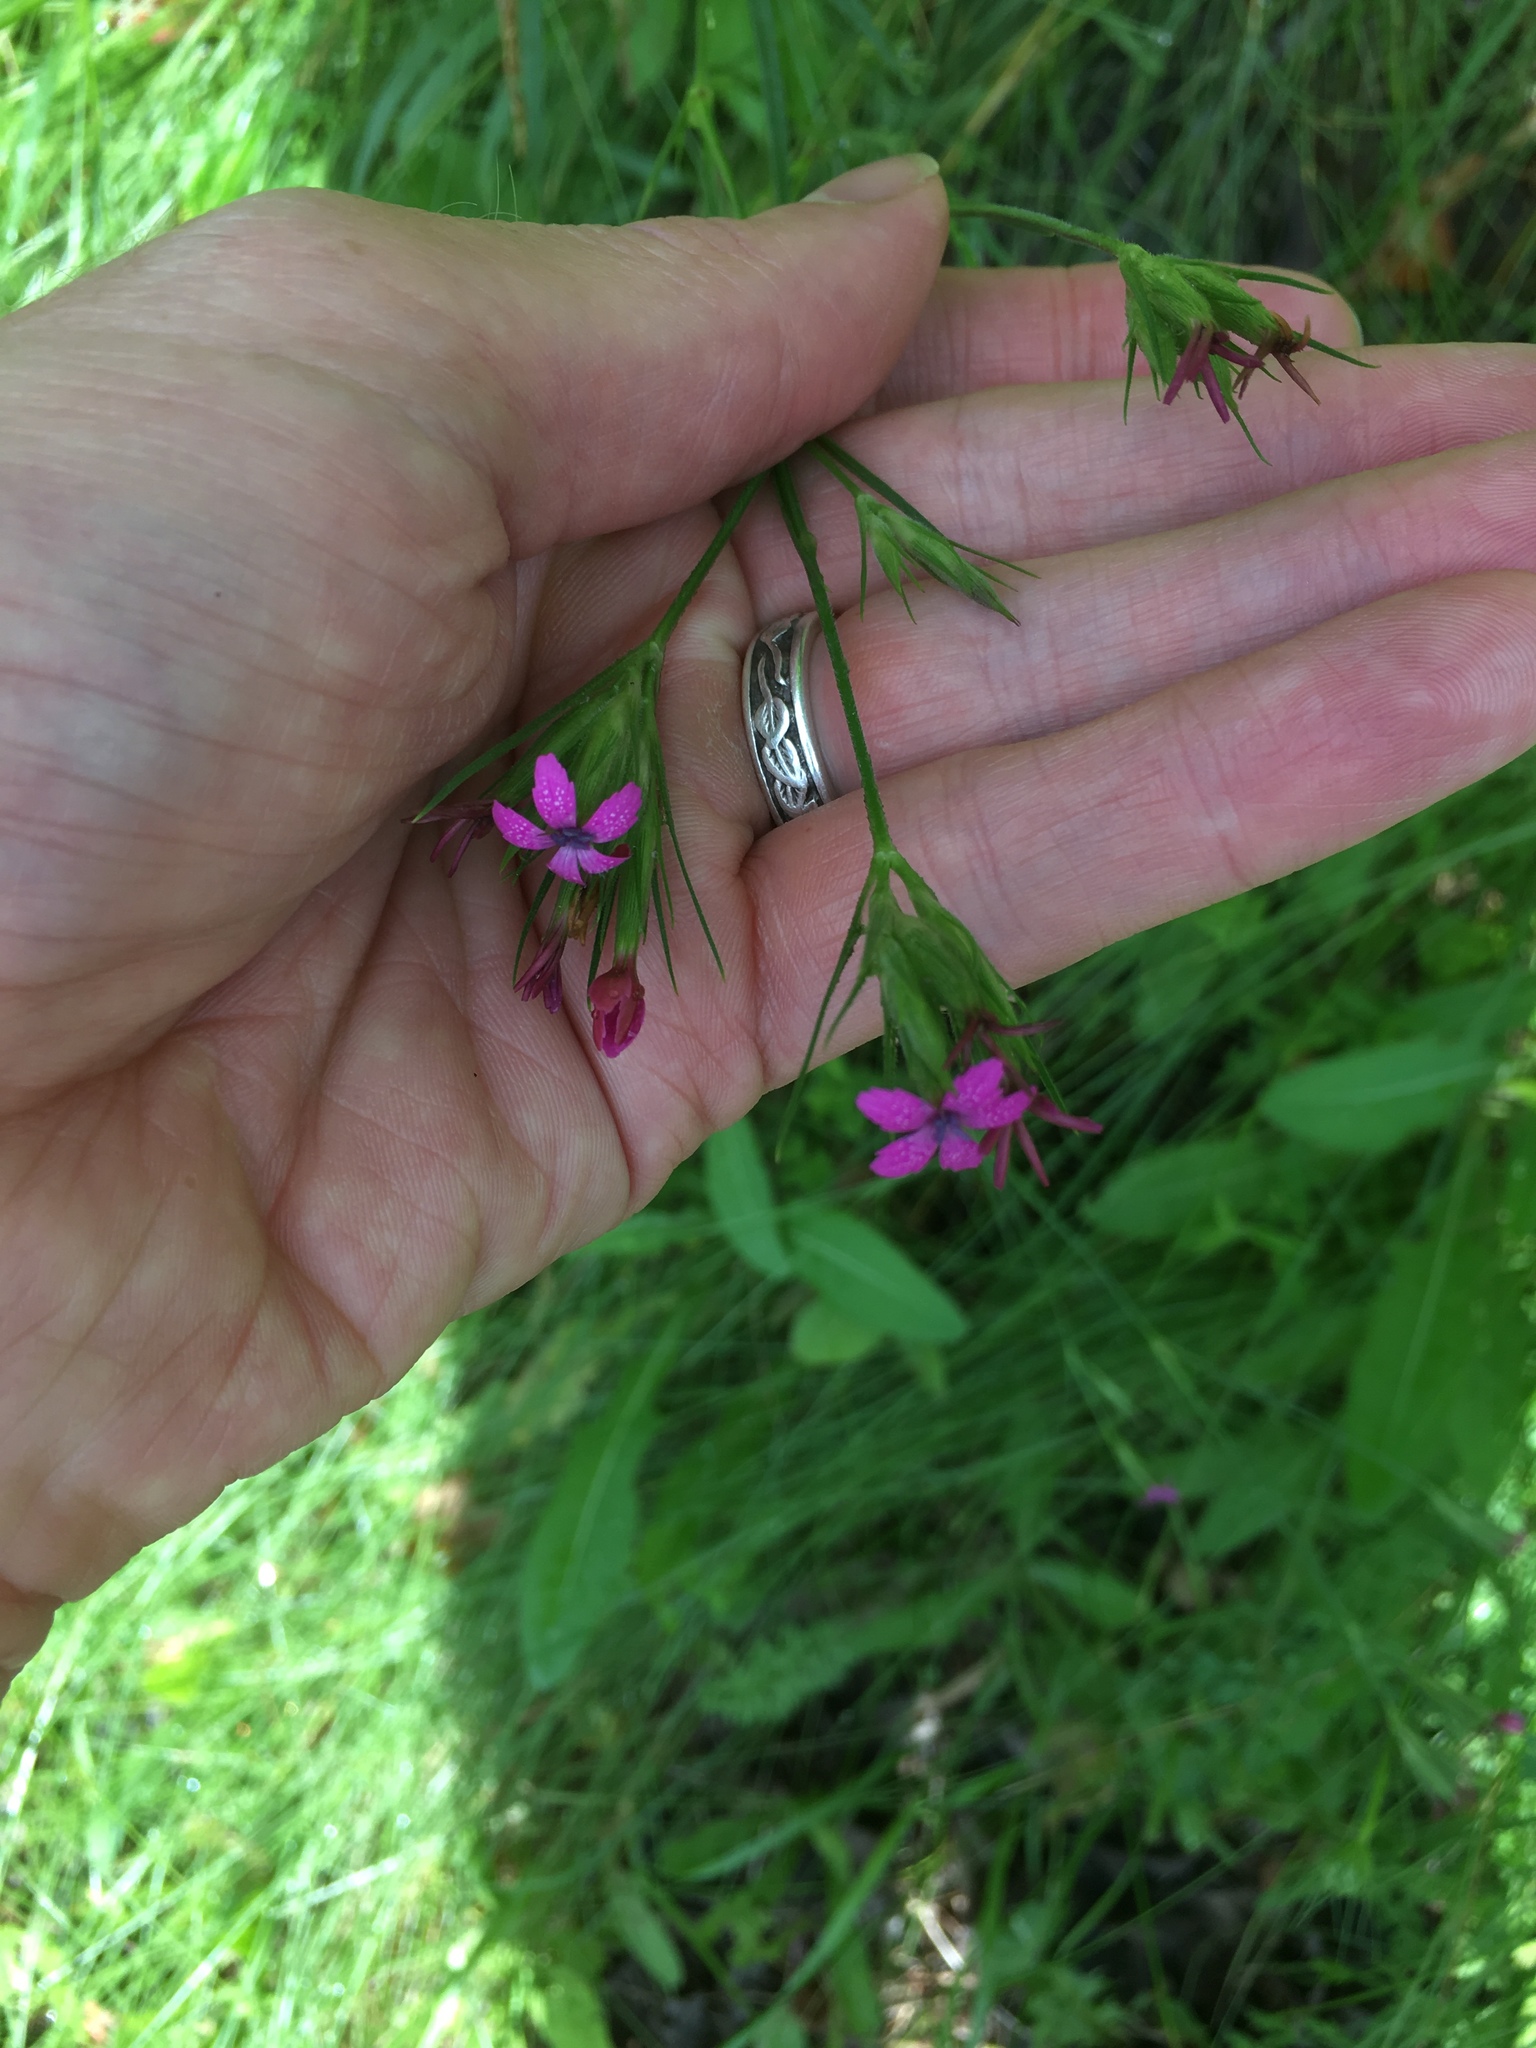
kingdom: Plantae
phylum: Tracheophyta
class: Magnoliopsida
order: Caryophyllales
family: Caryophyllaceae
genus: Dianthus
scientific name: Dianthus armeria
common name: Deptford pink
